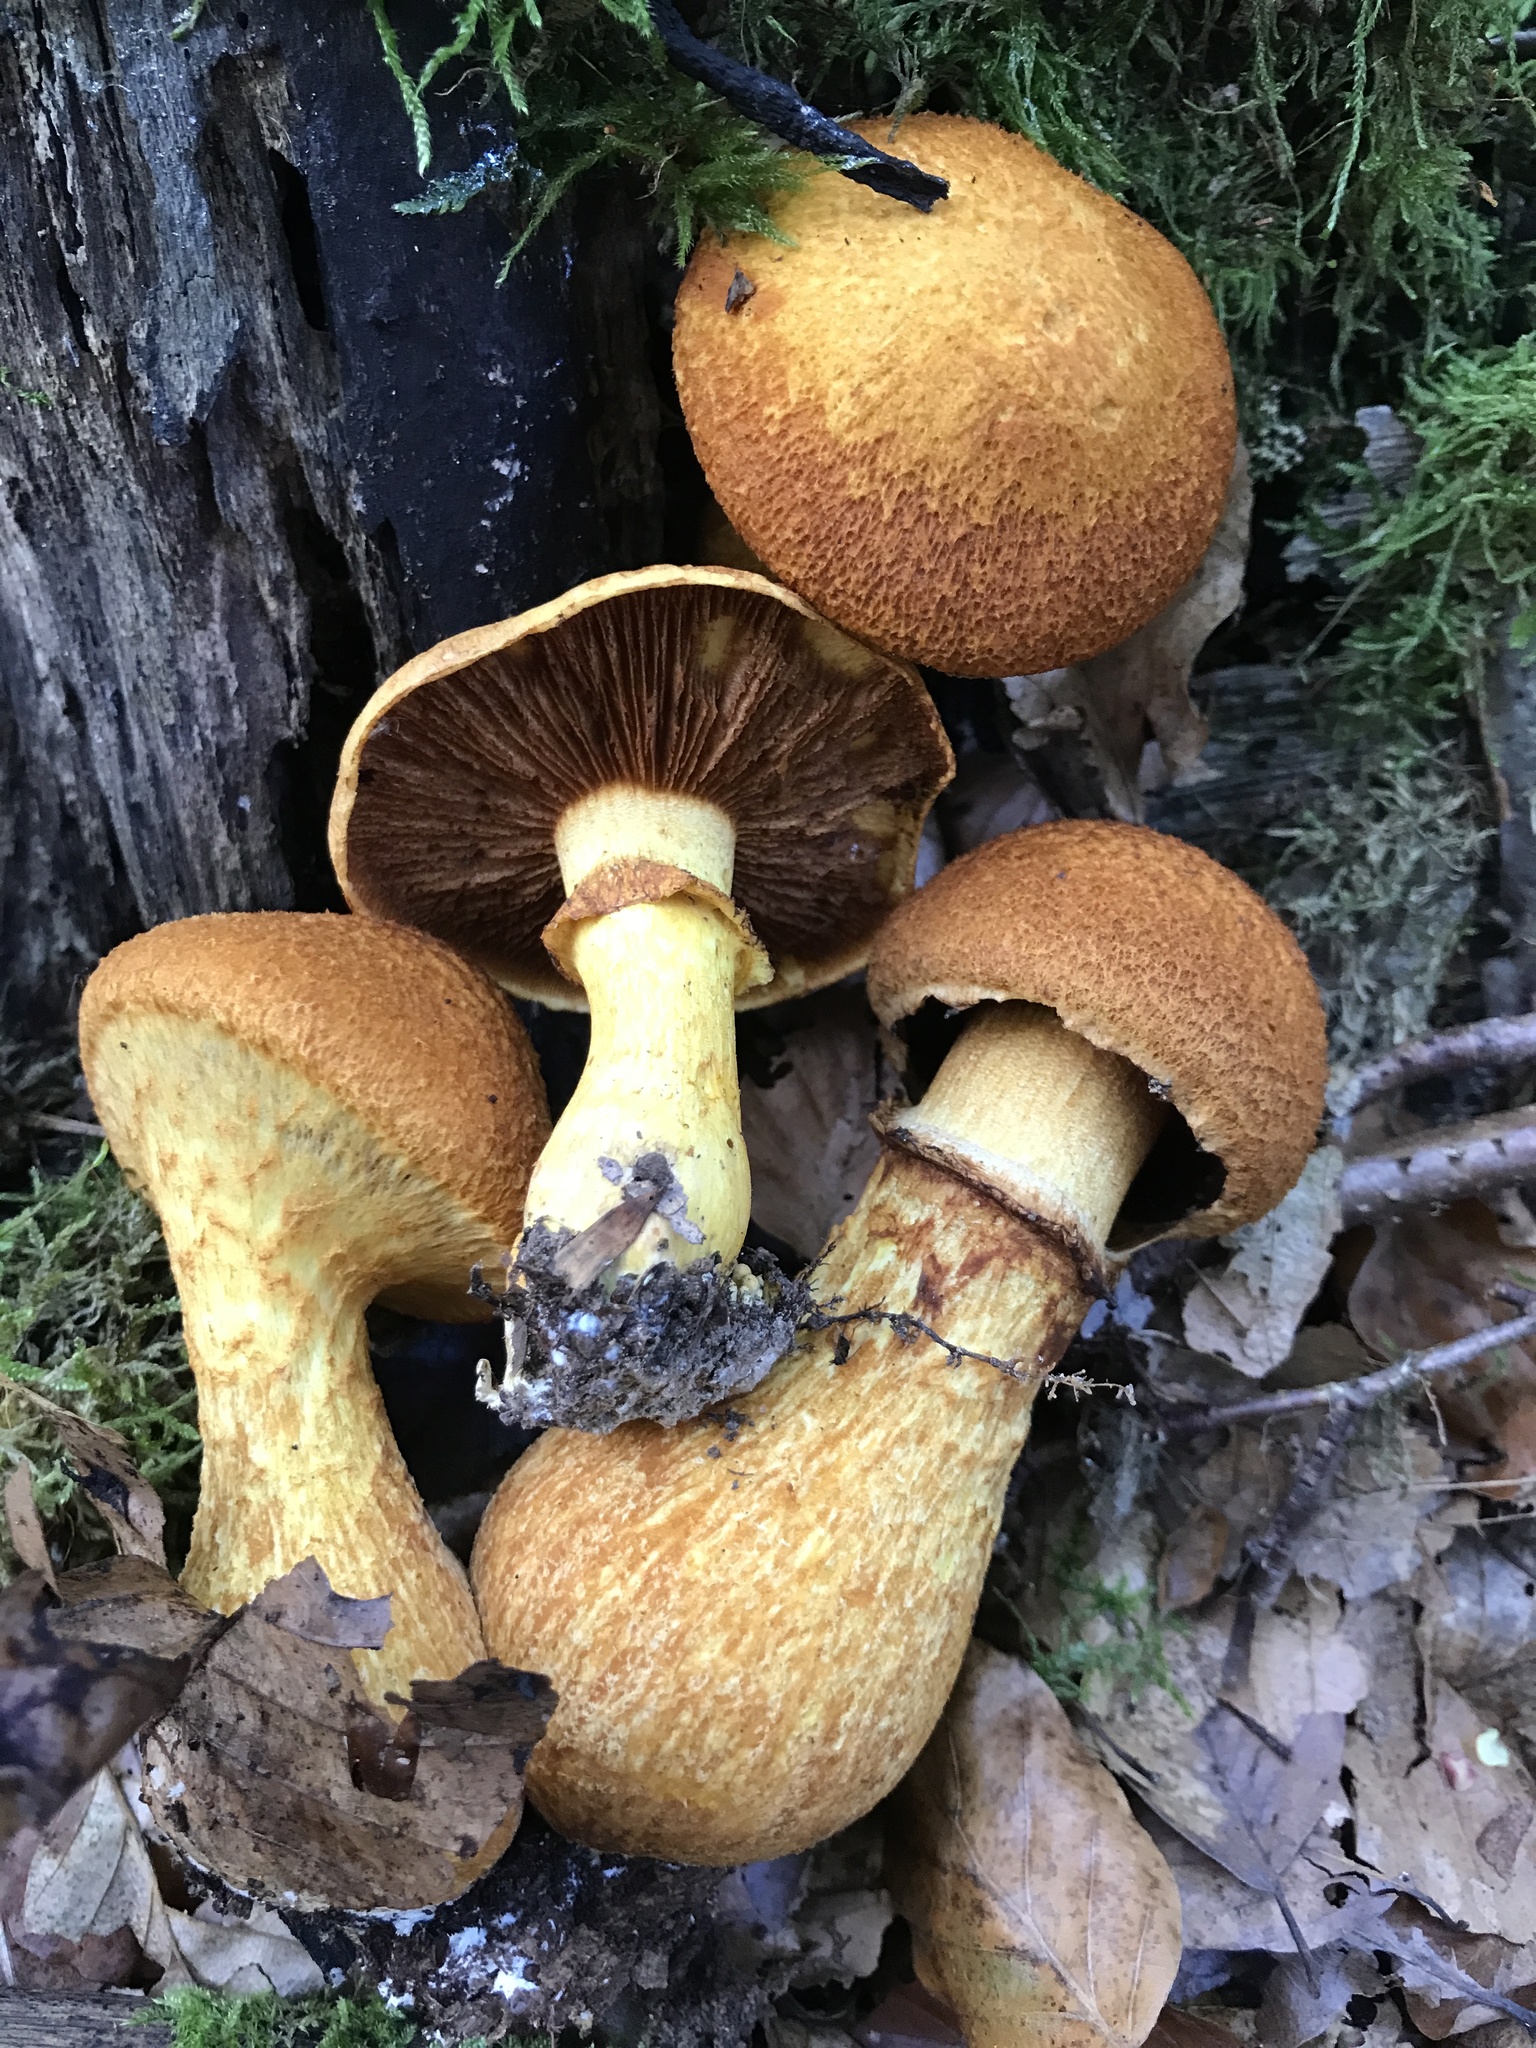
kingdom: Fungi
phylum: Basidiomycota
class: Agaricomycetes
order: Agaricales
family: Hymenogastraceae
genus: Gymnopilus
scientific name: Gymnopilus junonius
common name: Spectacular rustgill
